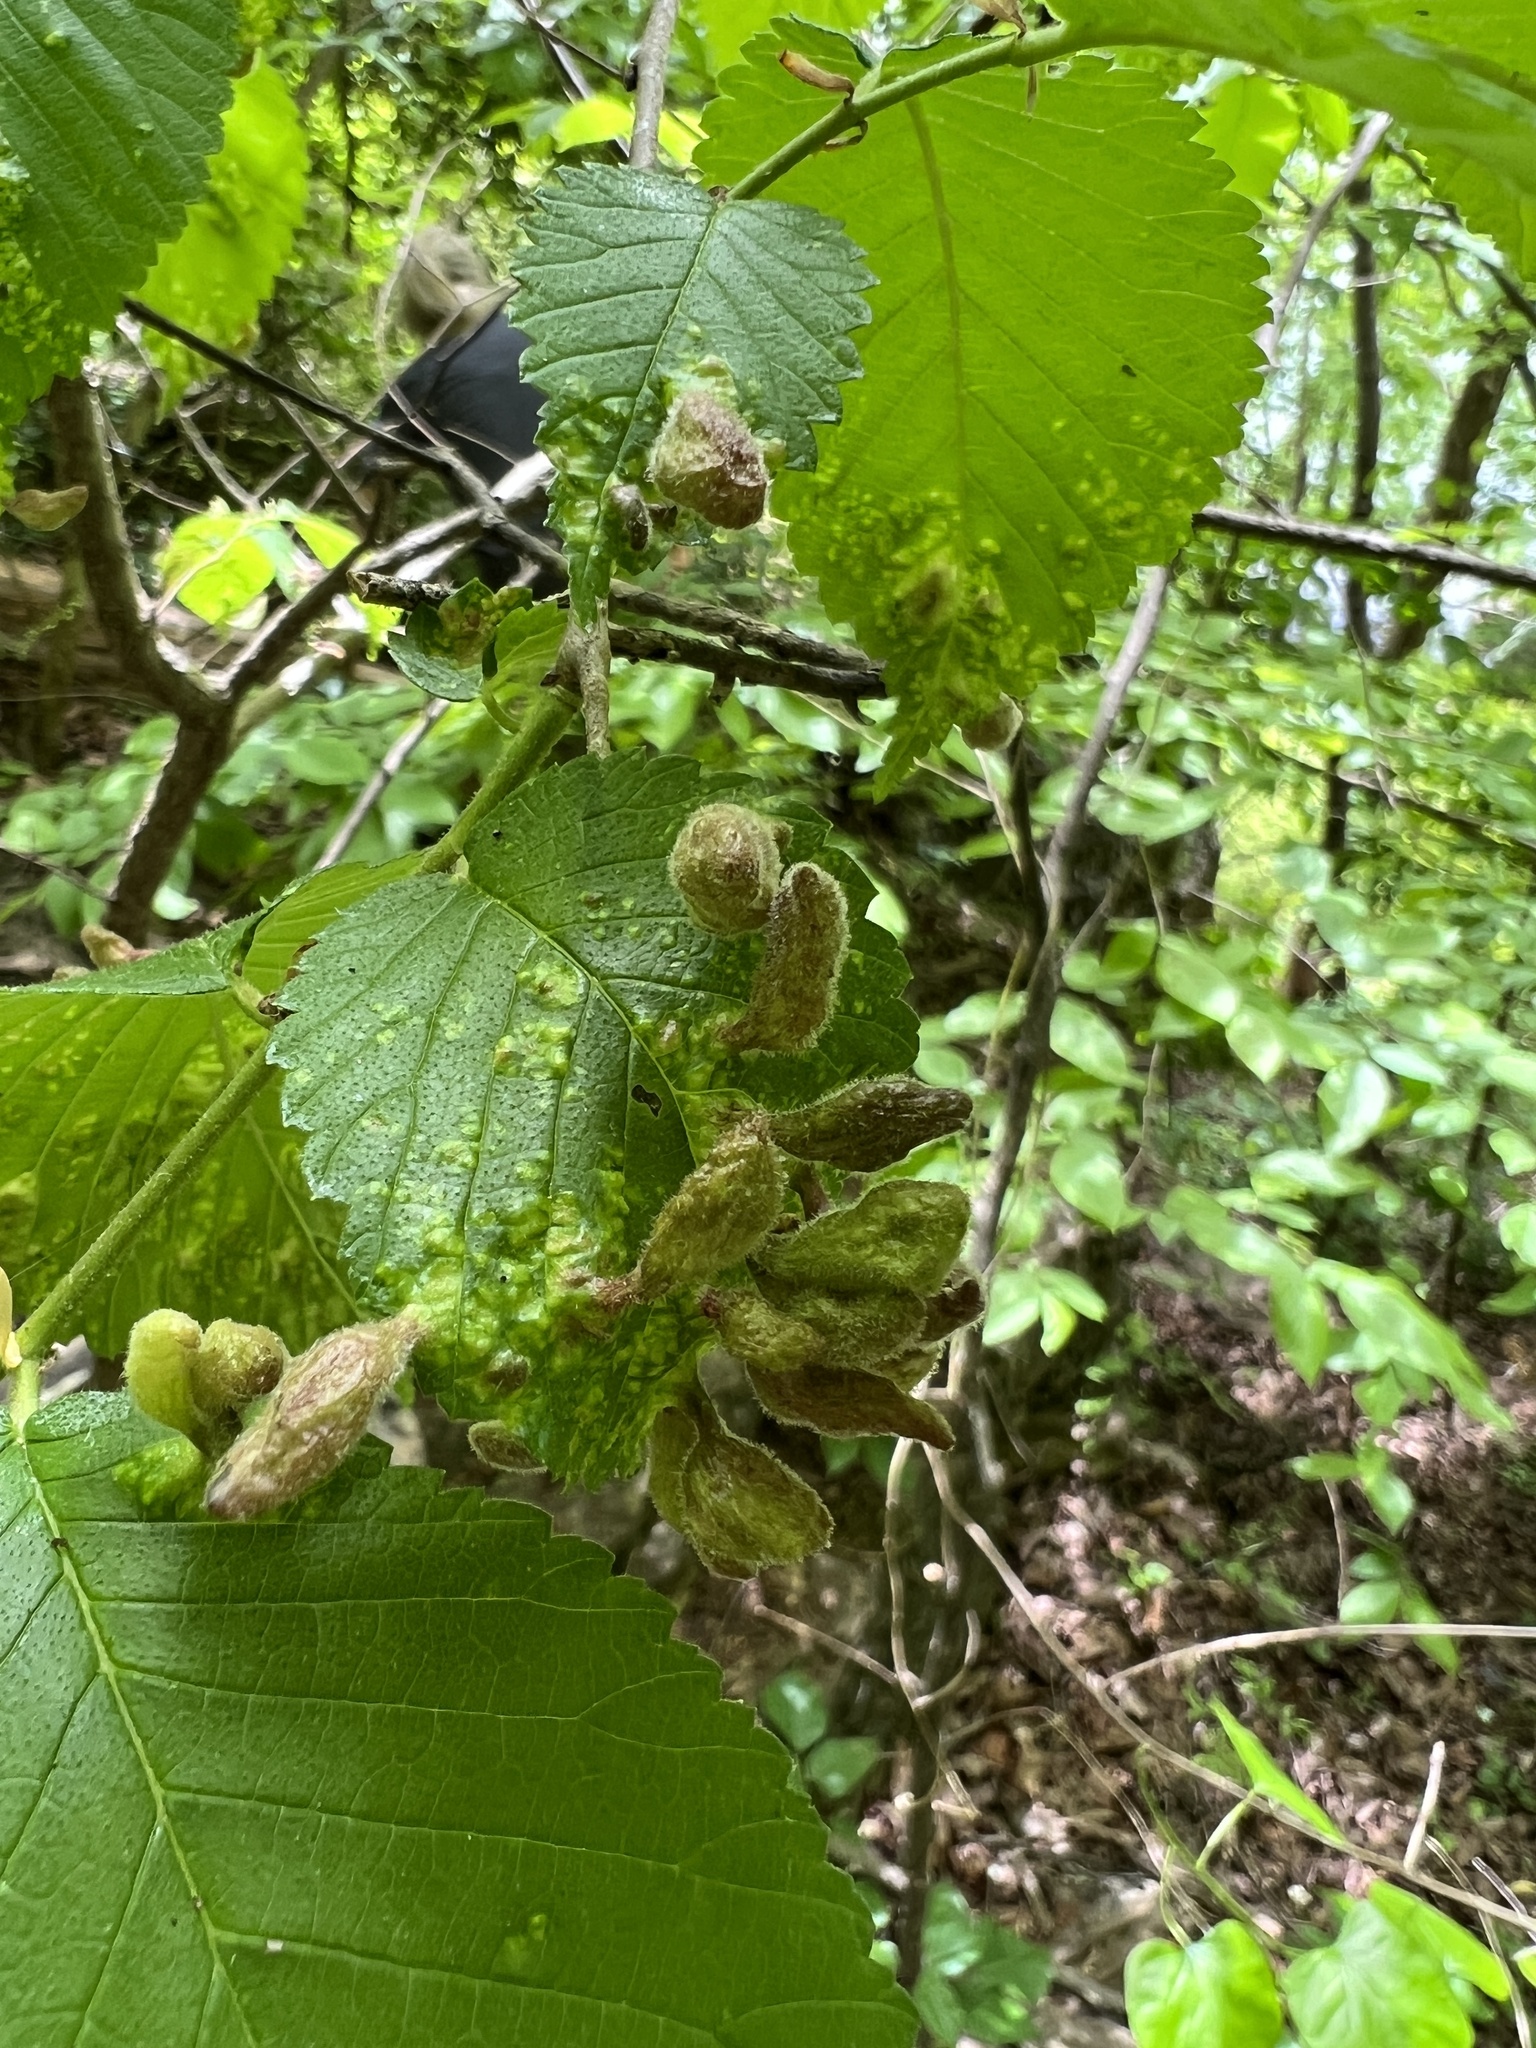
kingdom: Animalia
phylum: Arthropoda
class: Insecta
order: Hemiptera
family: Aphididae
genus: Tetraneura
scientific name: Tetraneura nigriabdominalis
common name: Aphid
